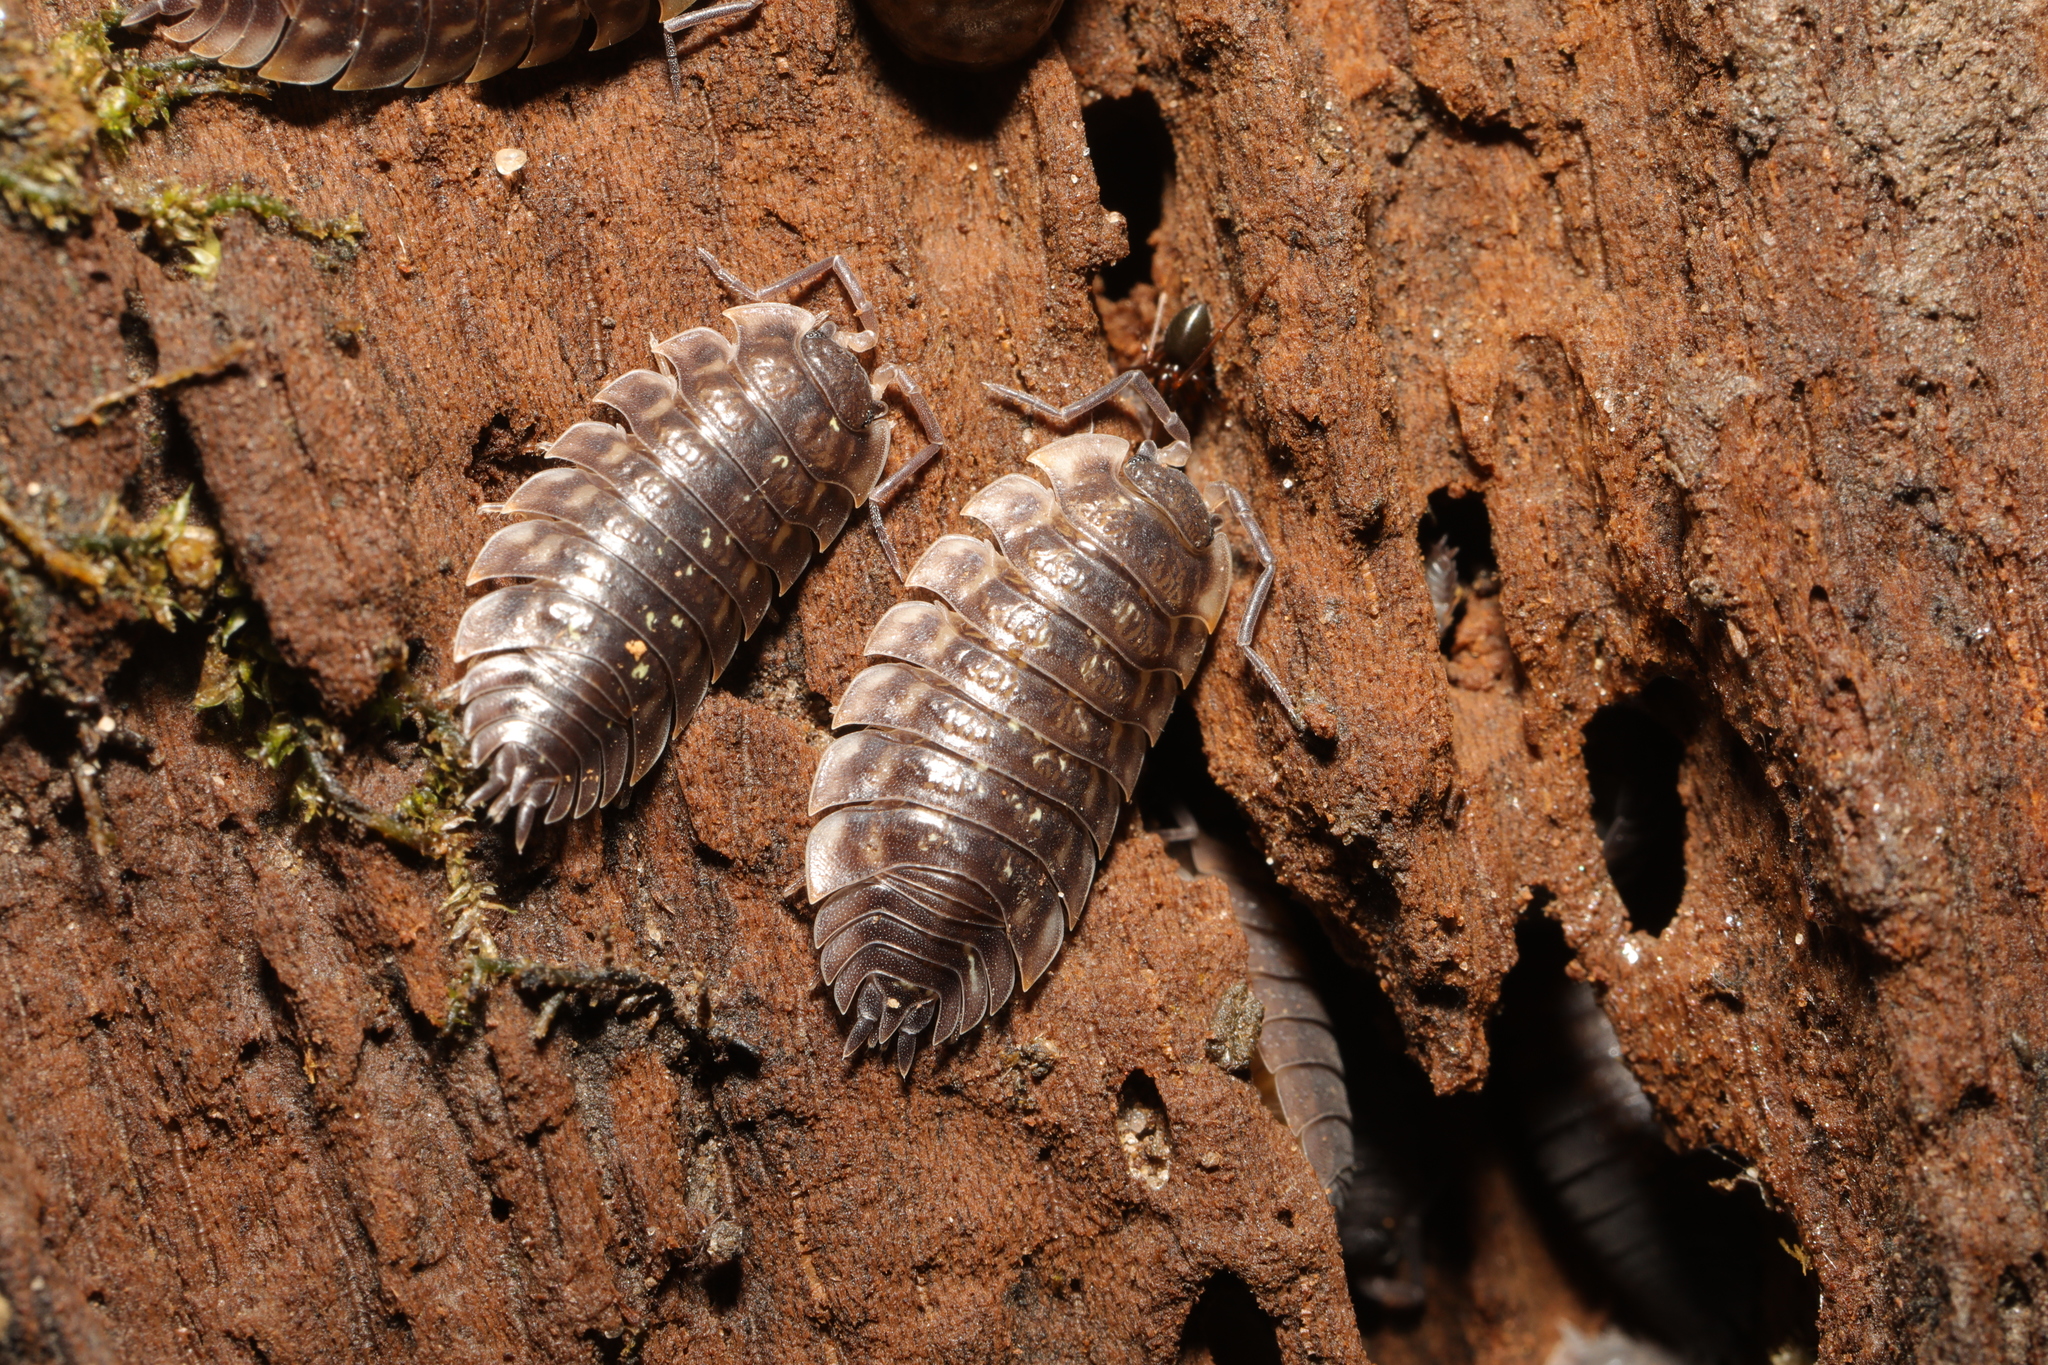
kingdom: Animalia
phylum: Arthropoda
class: Malacostraca
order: Isopoda
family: Oniscidae
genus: Oniscus
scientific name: Oniscus asellus
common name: Common shiny woodlouse
